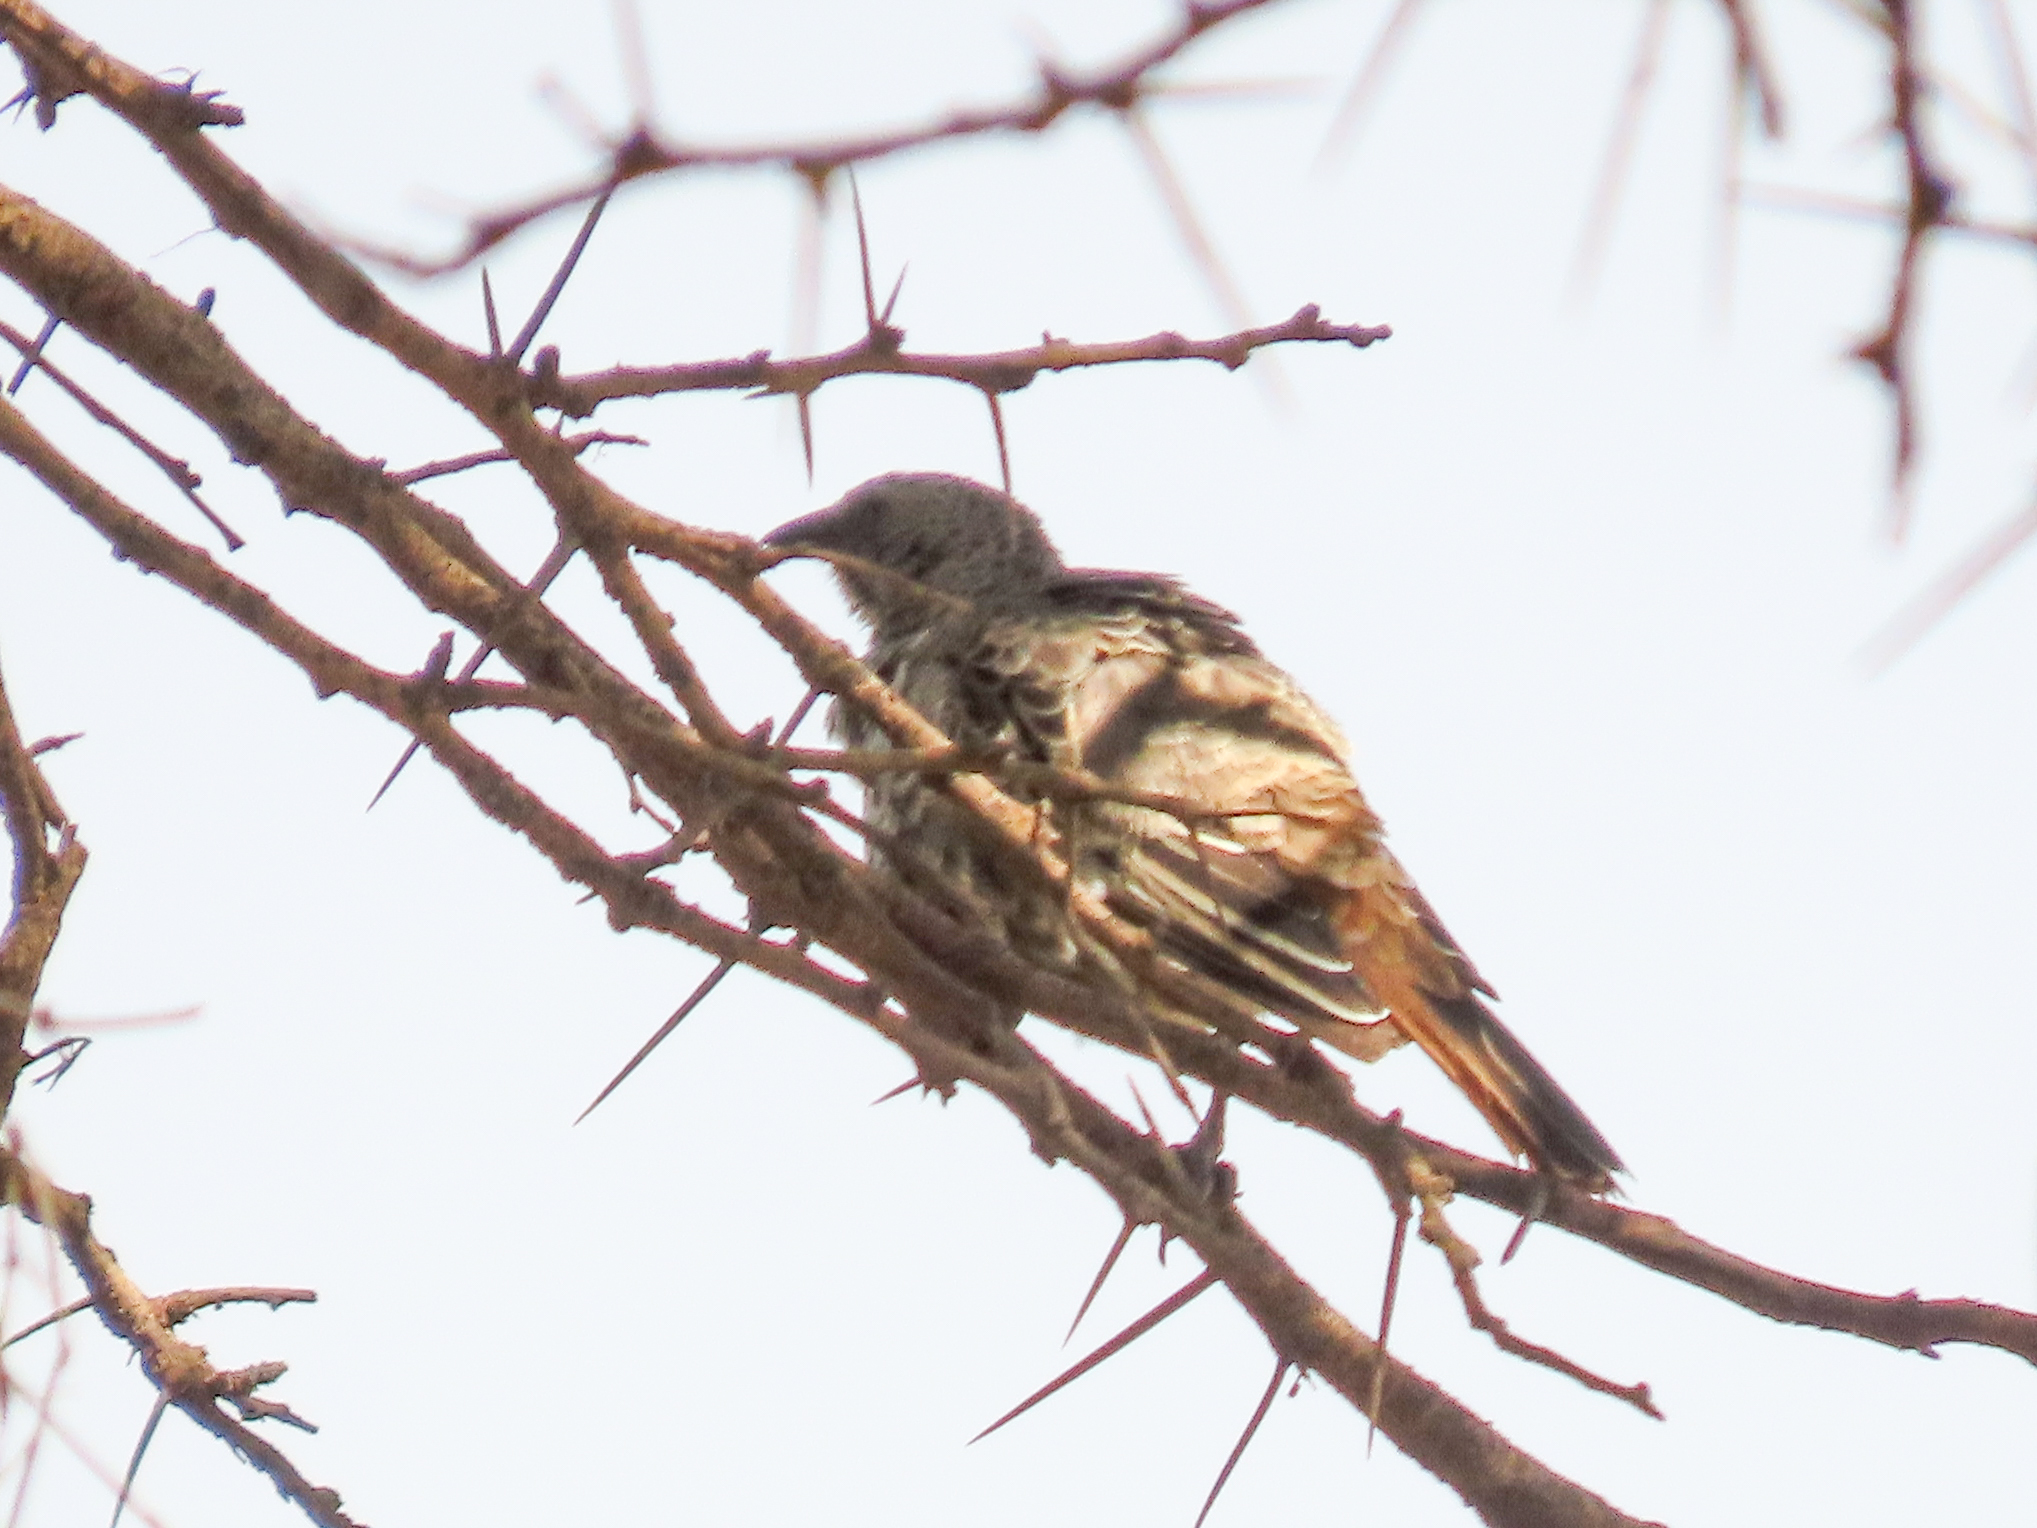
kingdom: Animalia
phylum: Chordata
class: Aves
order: Passeriformes
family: Passeridae
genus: Histurgops
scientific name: Histurgops ruficauda
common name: Rufous-tailed weaver
